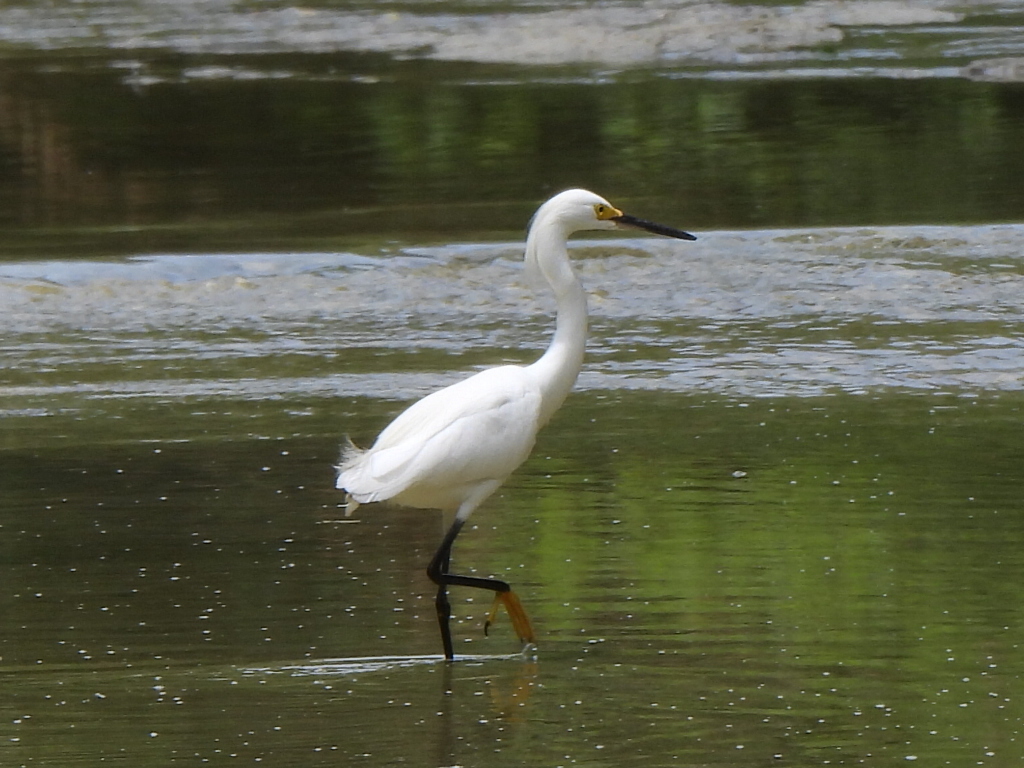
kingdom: Animalia
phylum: Chordata
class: Aves
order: Pelecaniformes
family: Ardeidae
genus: Egretta
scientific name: Egretta thula
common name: Snowy egret
